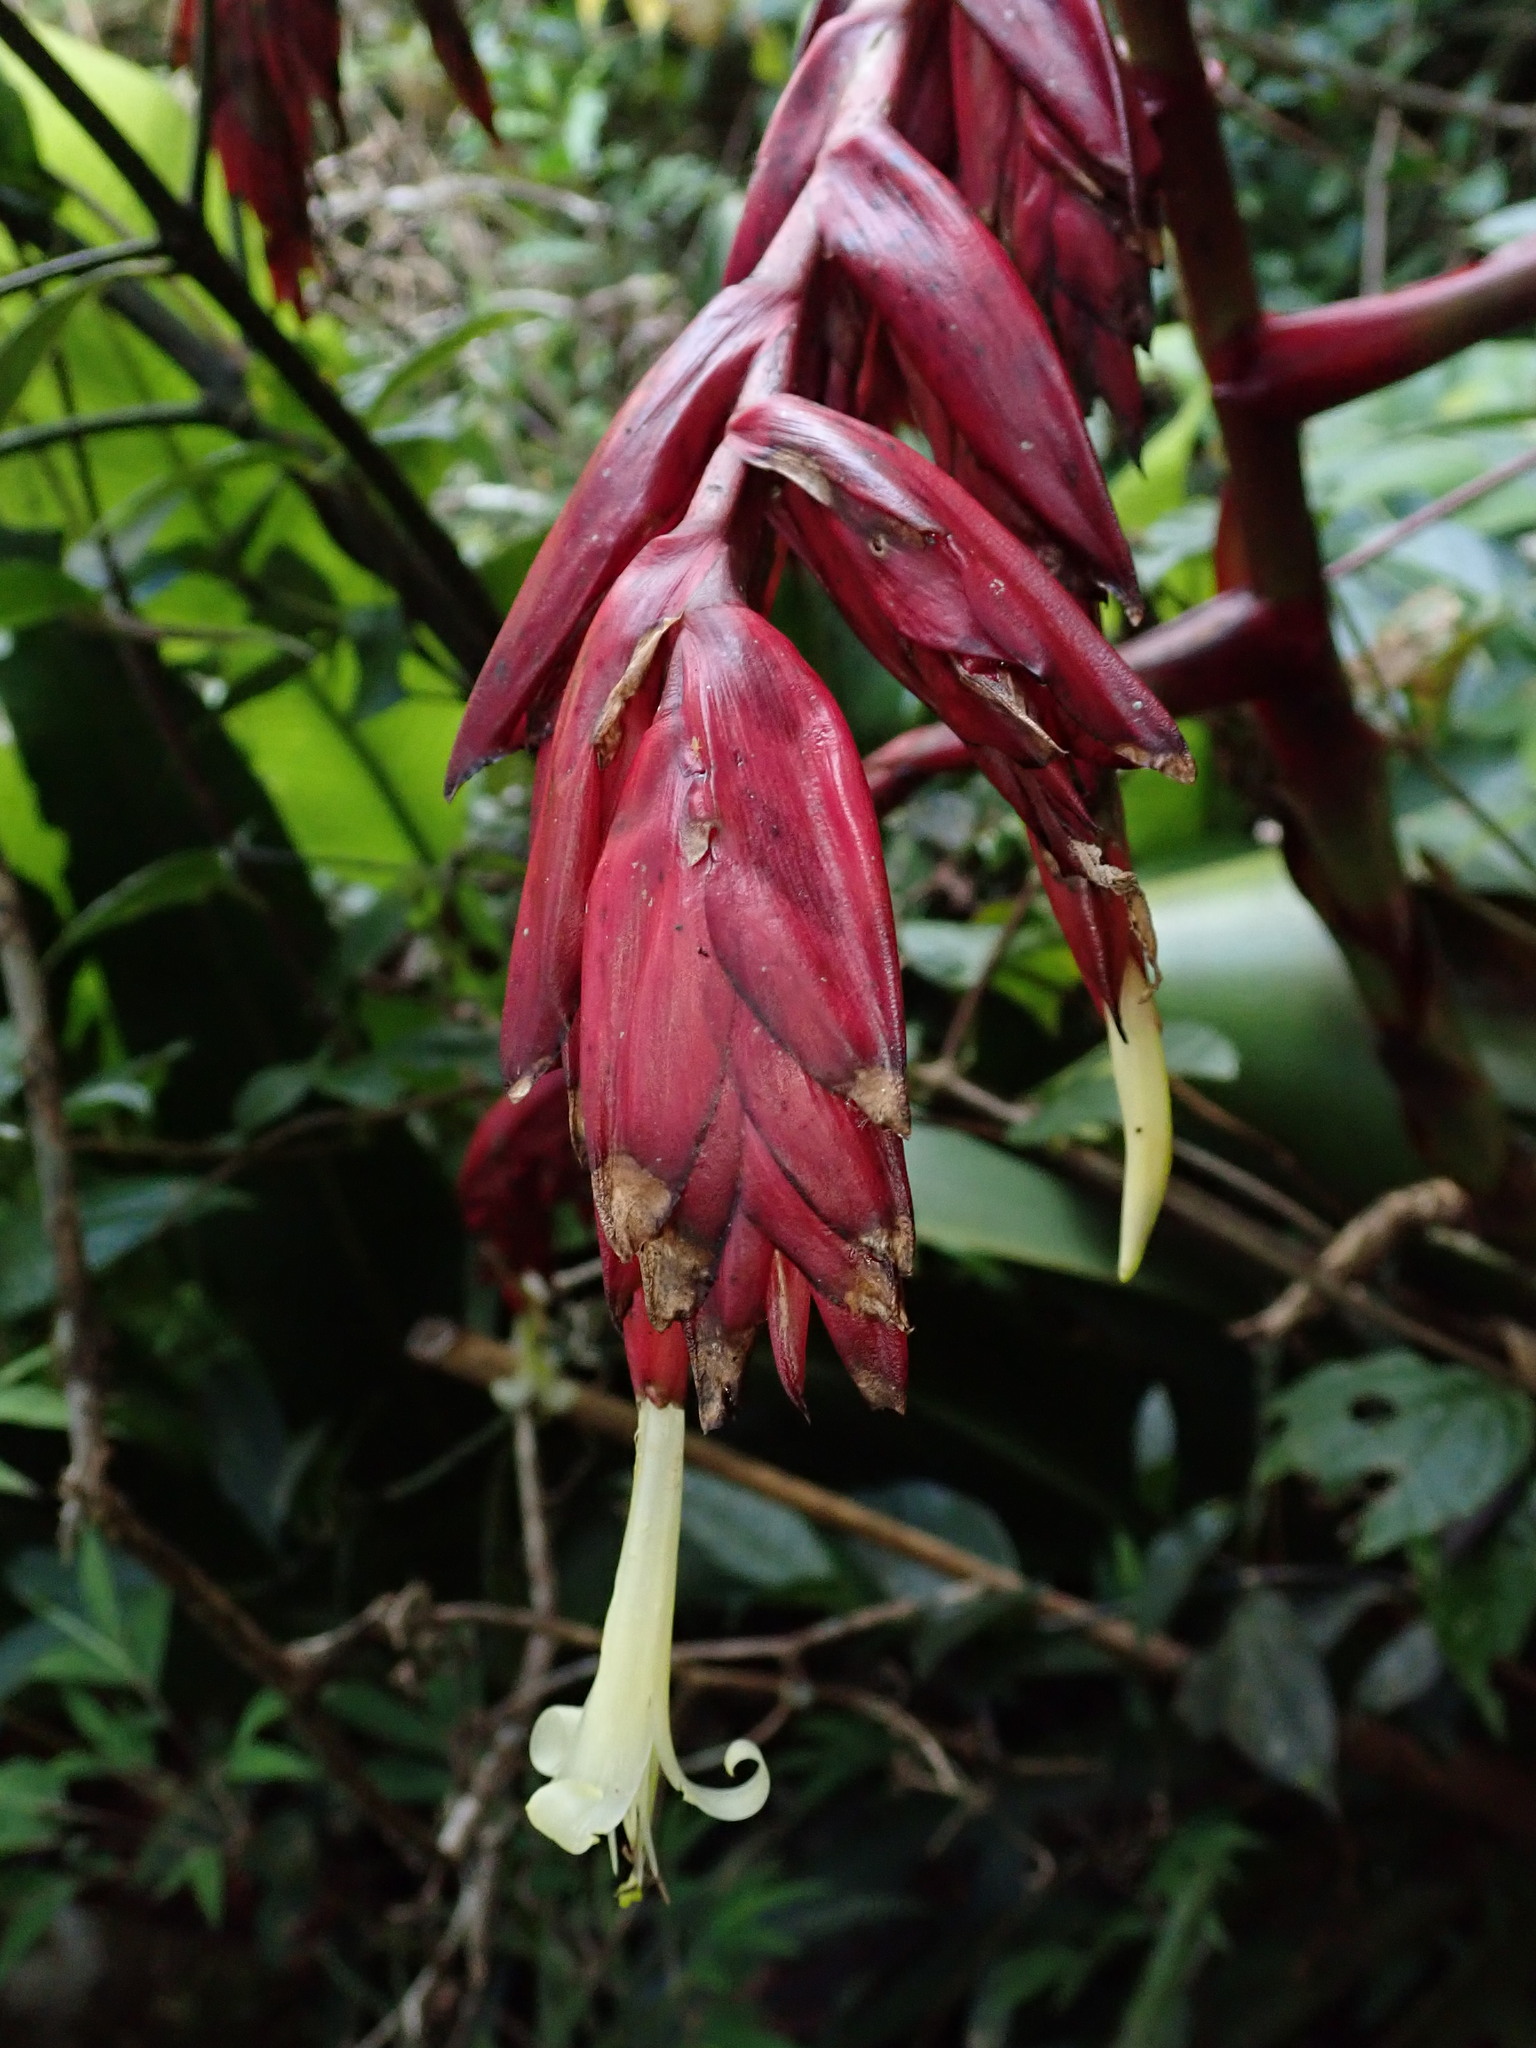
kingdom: Plantae
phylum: Tracheophyta
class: Liliopsida
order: Poales
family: Bromeliaceae
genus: Gregbrownia
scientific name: Gregbrownia fulgens
